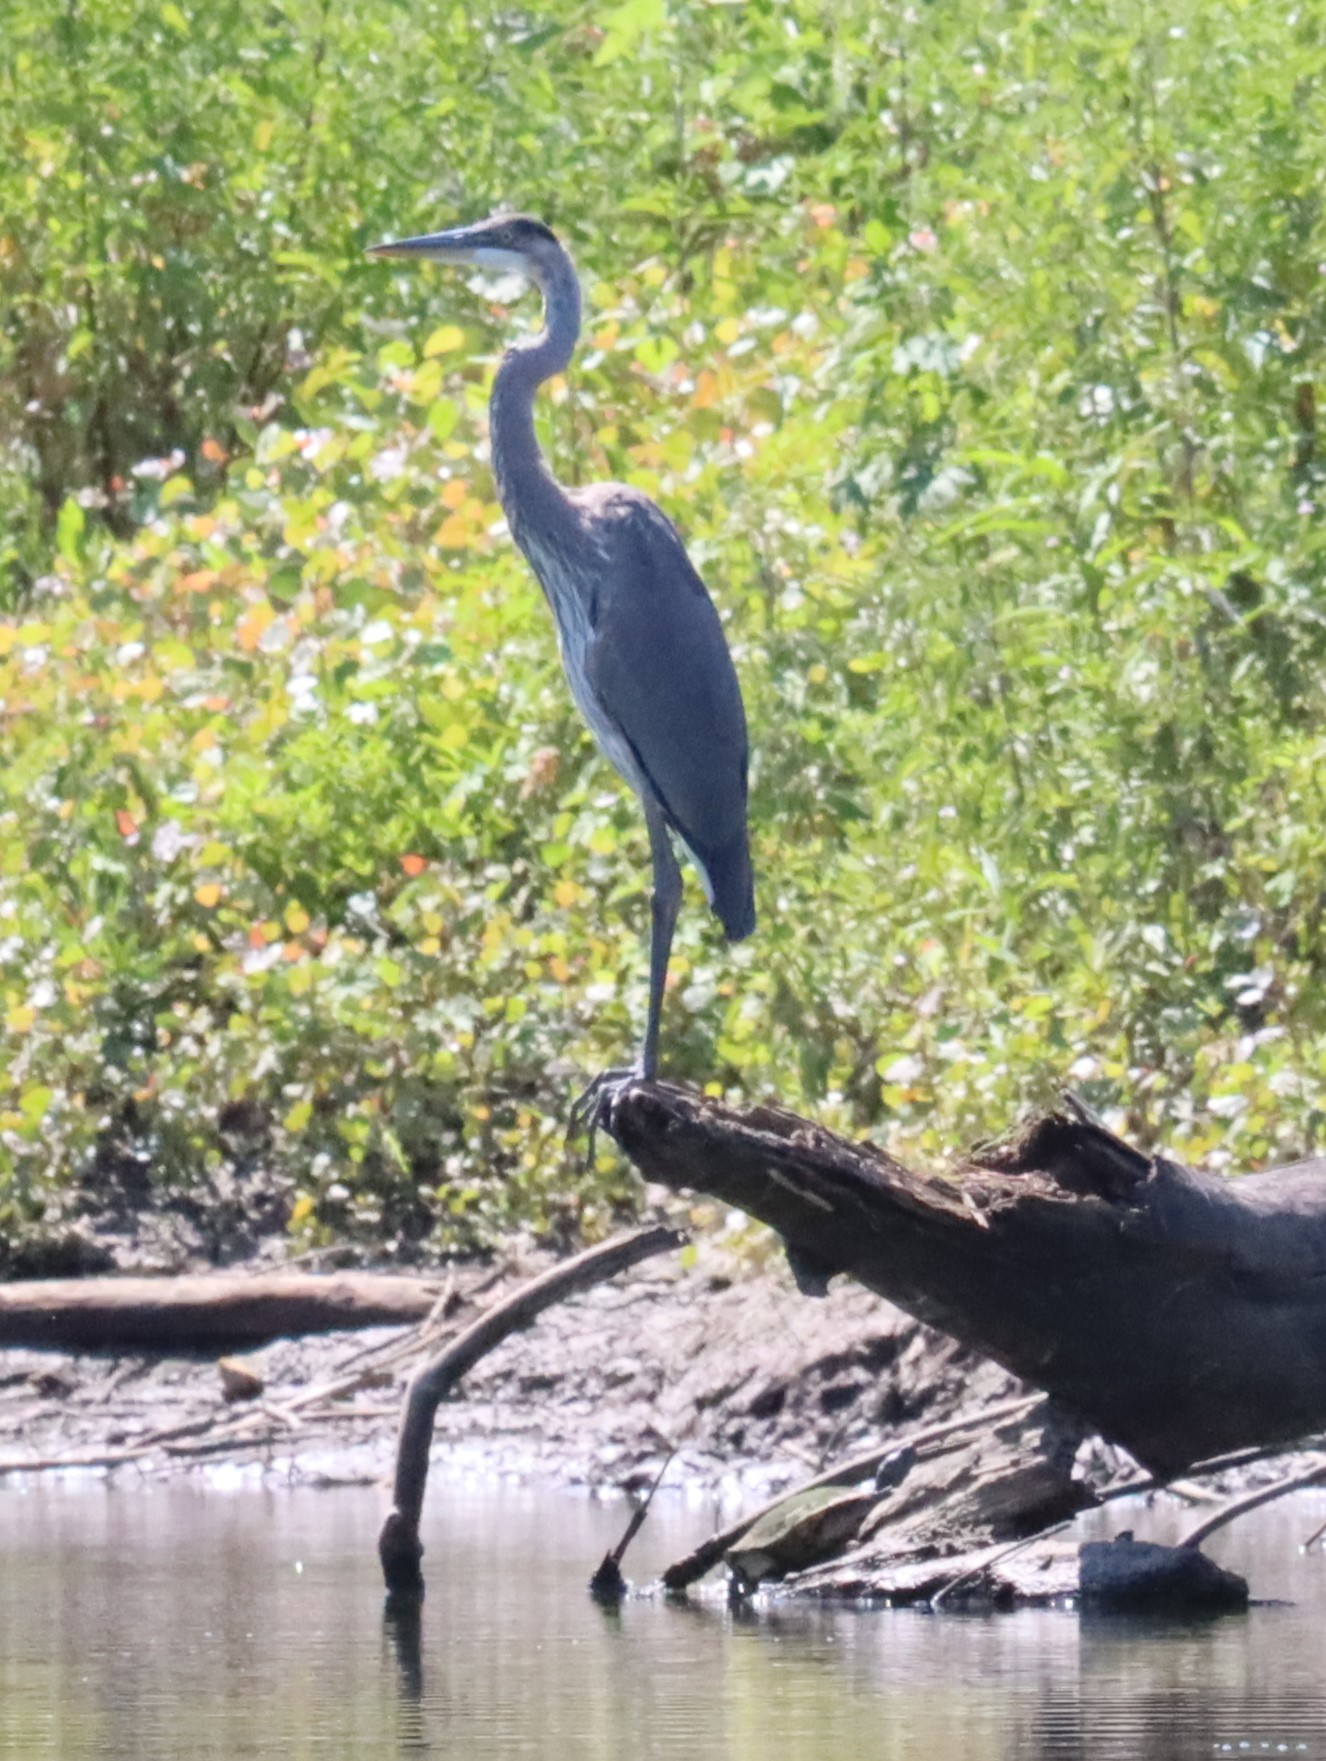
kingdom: Animalia
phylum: Chordata
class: Aves
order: Pelecaniformes
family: Ardeidae
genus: Ardea
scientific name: Ardea herodias
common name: Great blue heron
